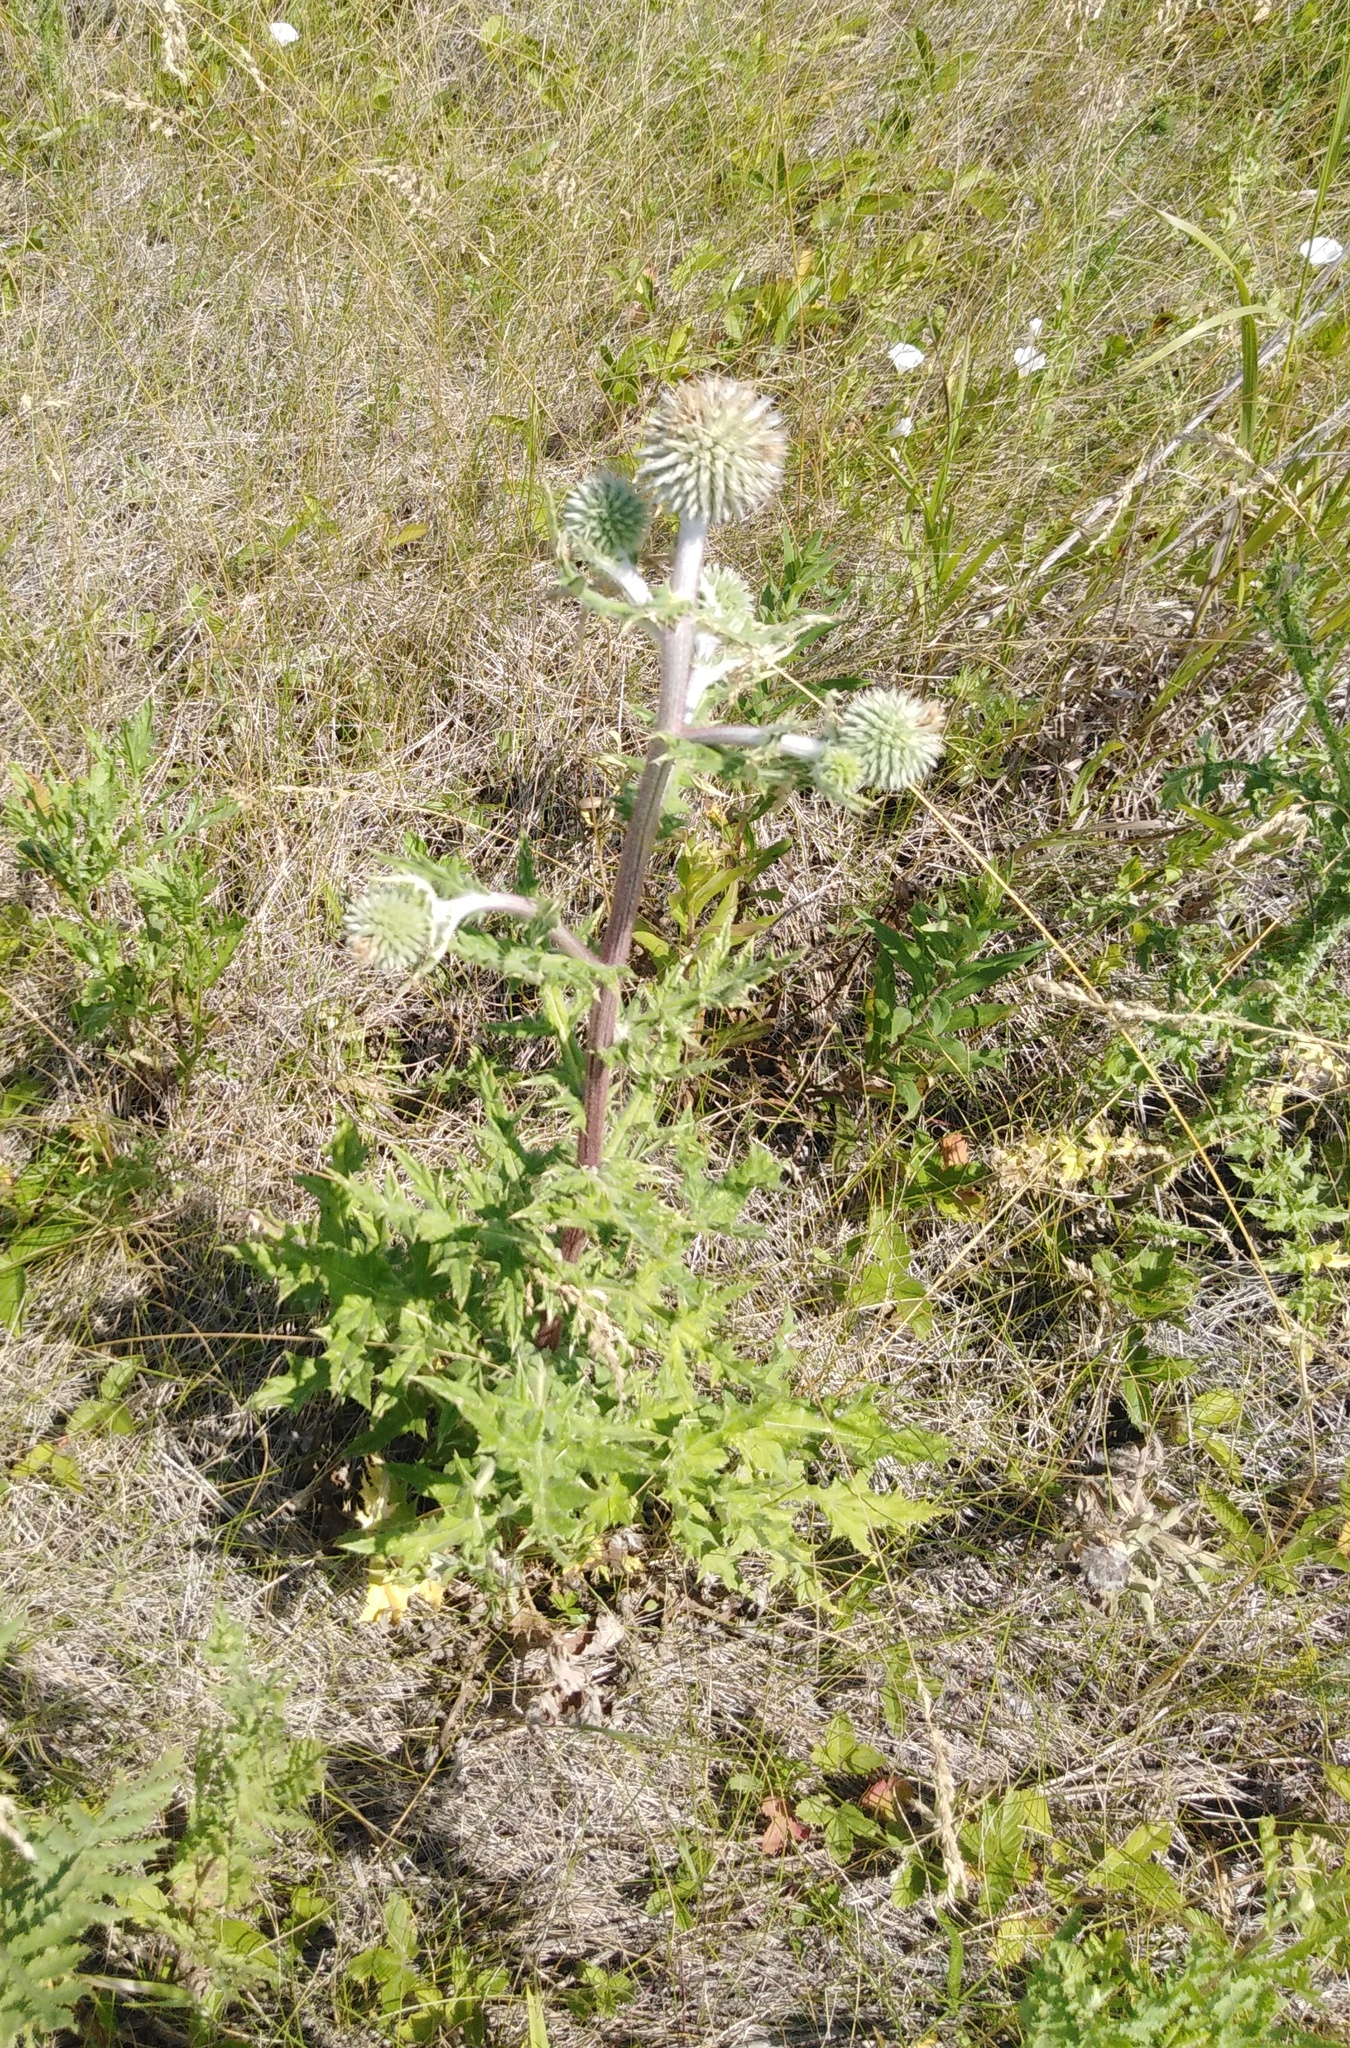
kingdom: Plantae
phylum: Tracheophyta
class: Magnoliopsida
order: Asterales
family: Asteraceae
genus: Echinops
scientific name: Echinops sphaerocephalus
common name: Glandular globe-thistle
